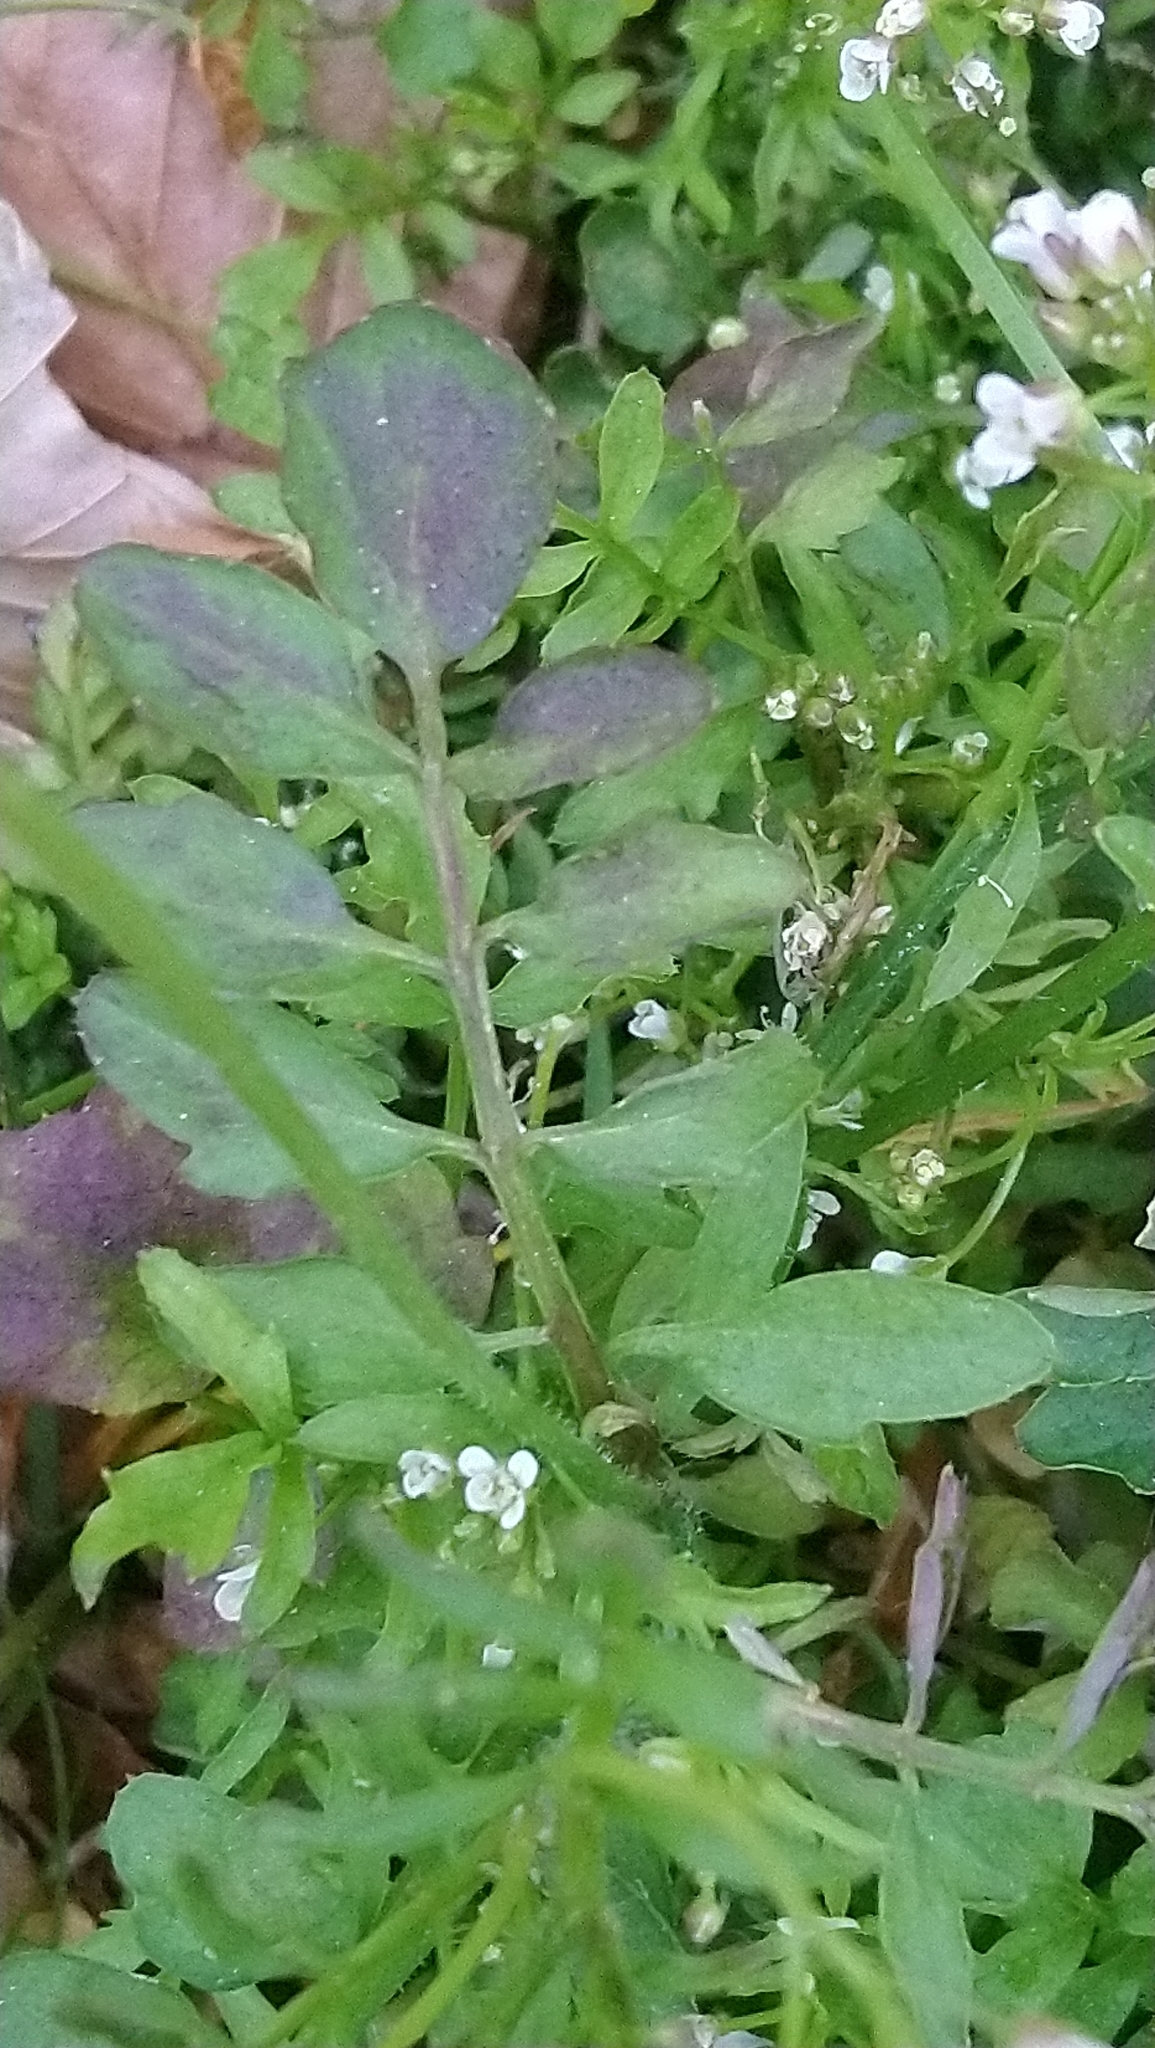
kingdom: Plantae
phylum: Tracheophyta
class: Magnoliopsida
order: Brassicales
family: Brassicaceae
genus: Cardamine
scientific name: Cardamine flexuosa
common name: Woodland bittercress
